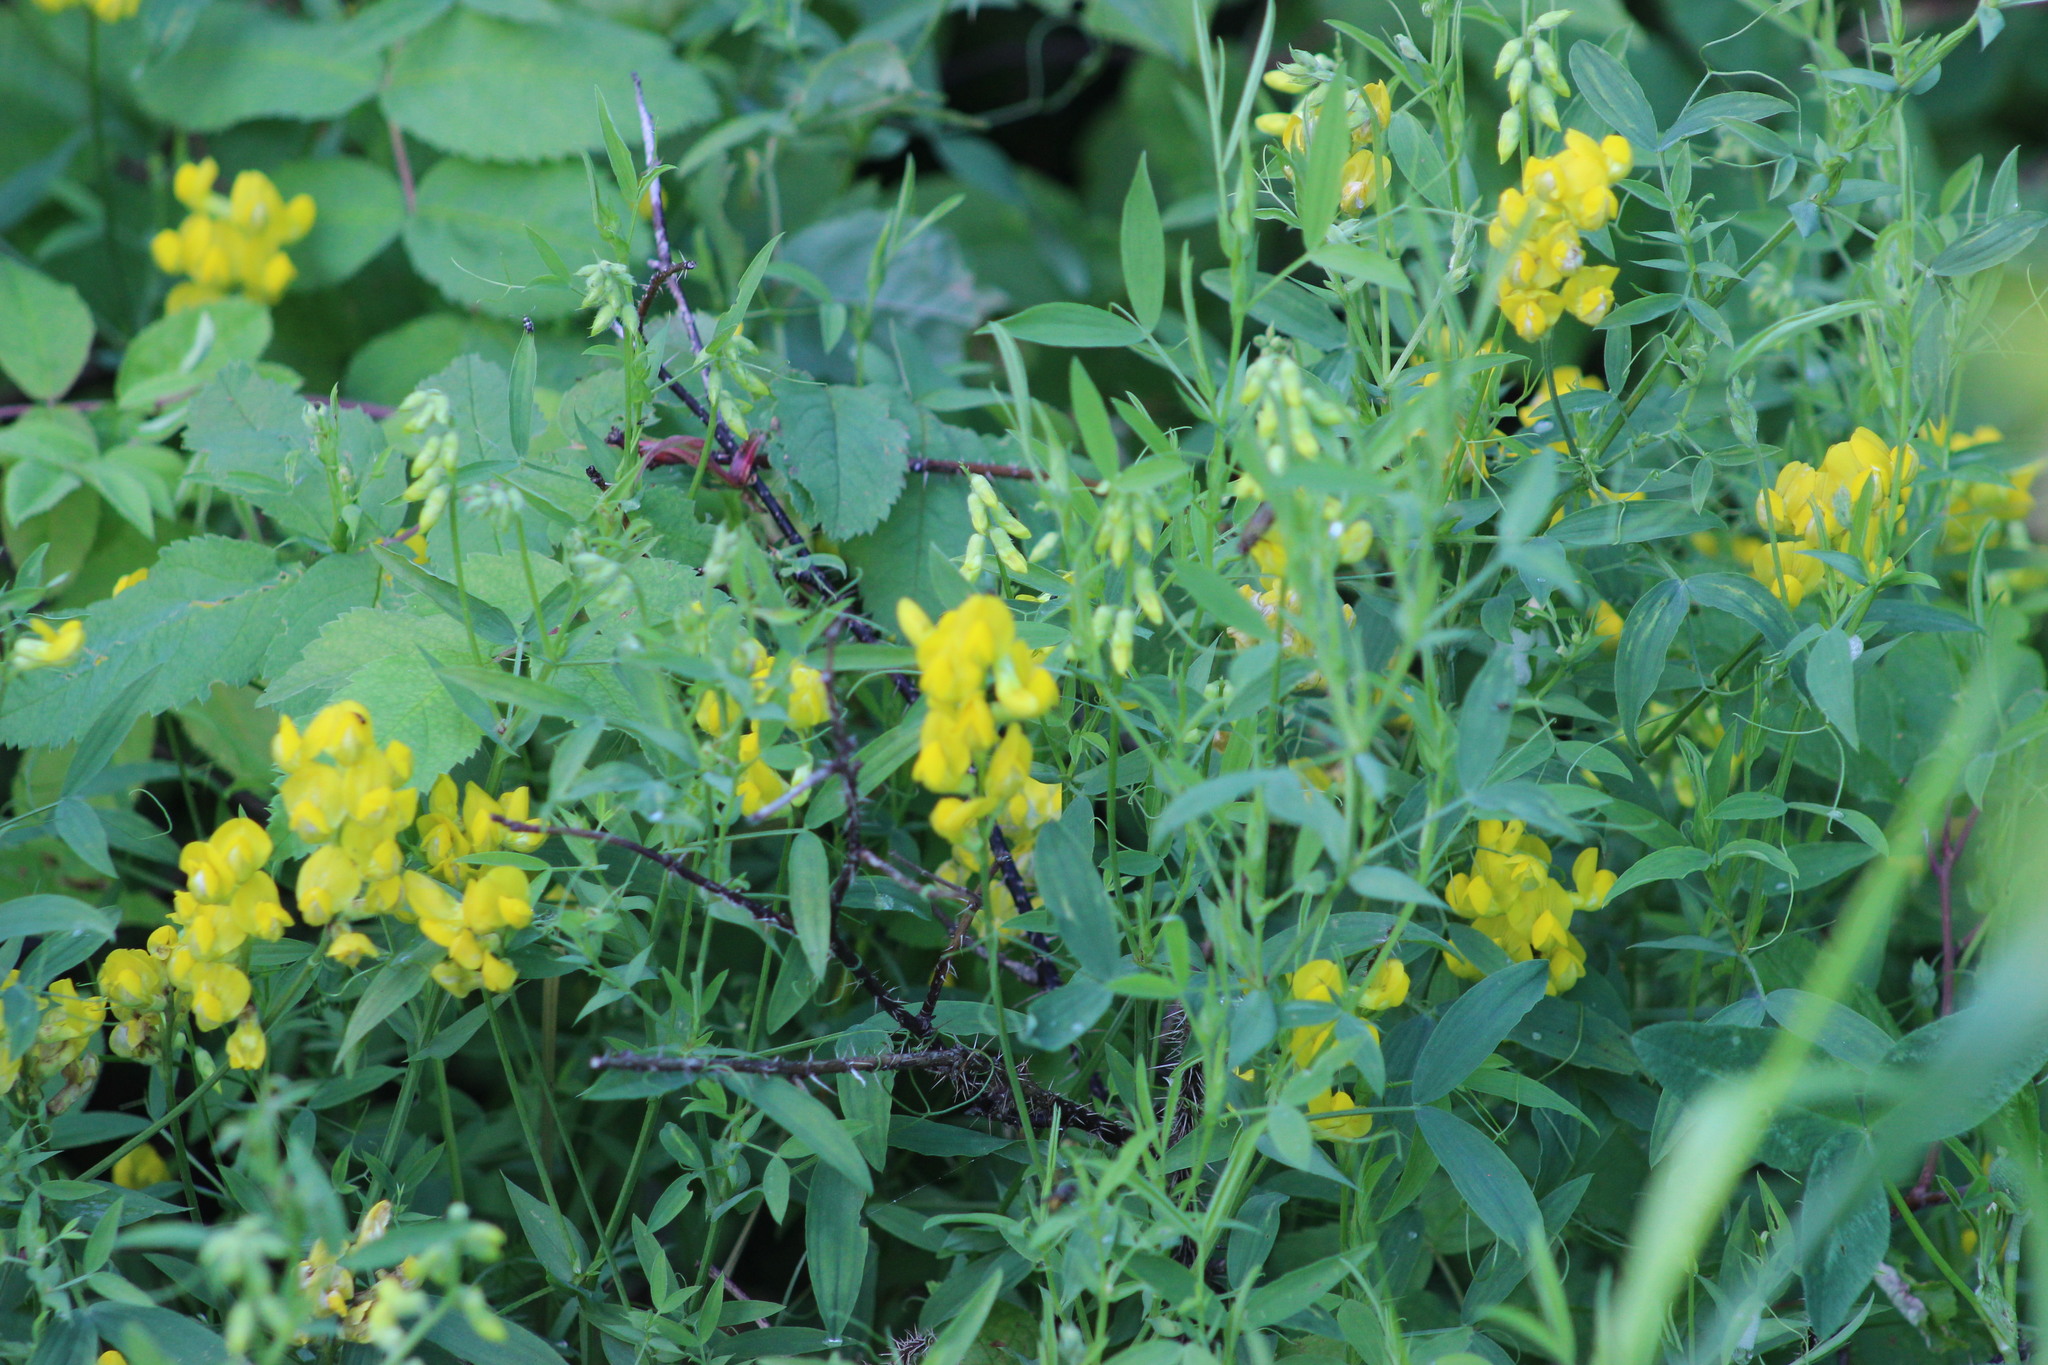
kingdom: Plantae
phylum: Tracheophyta
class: Magnoliopsida
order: Fabales
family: Fabaceae
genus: Lathyrus
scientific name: Lathyrus pratensis
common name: Meadow vetchling
